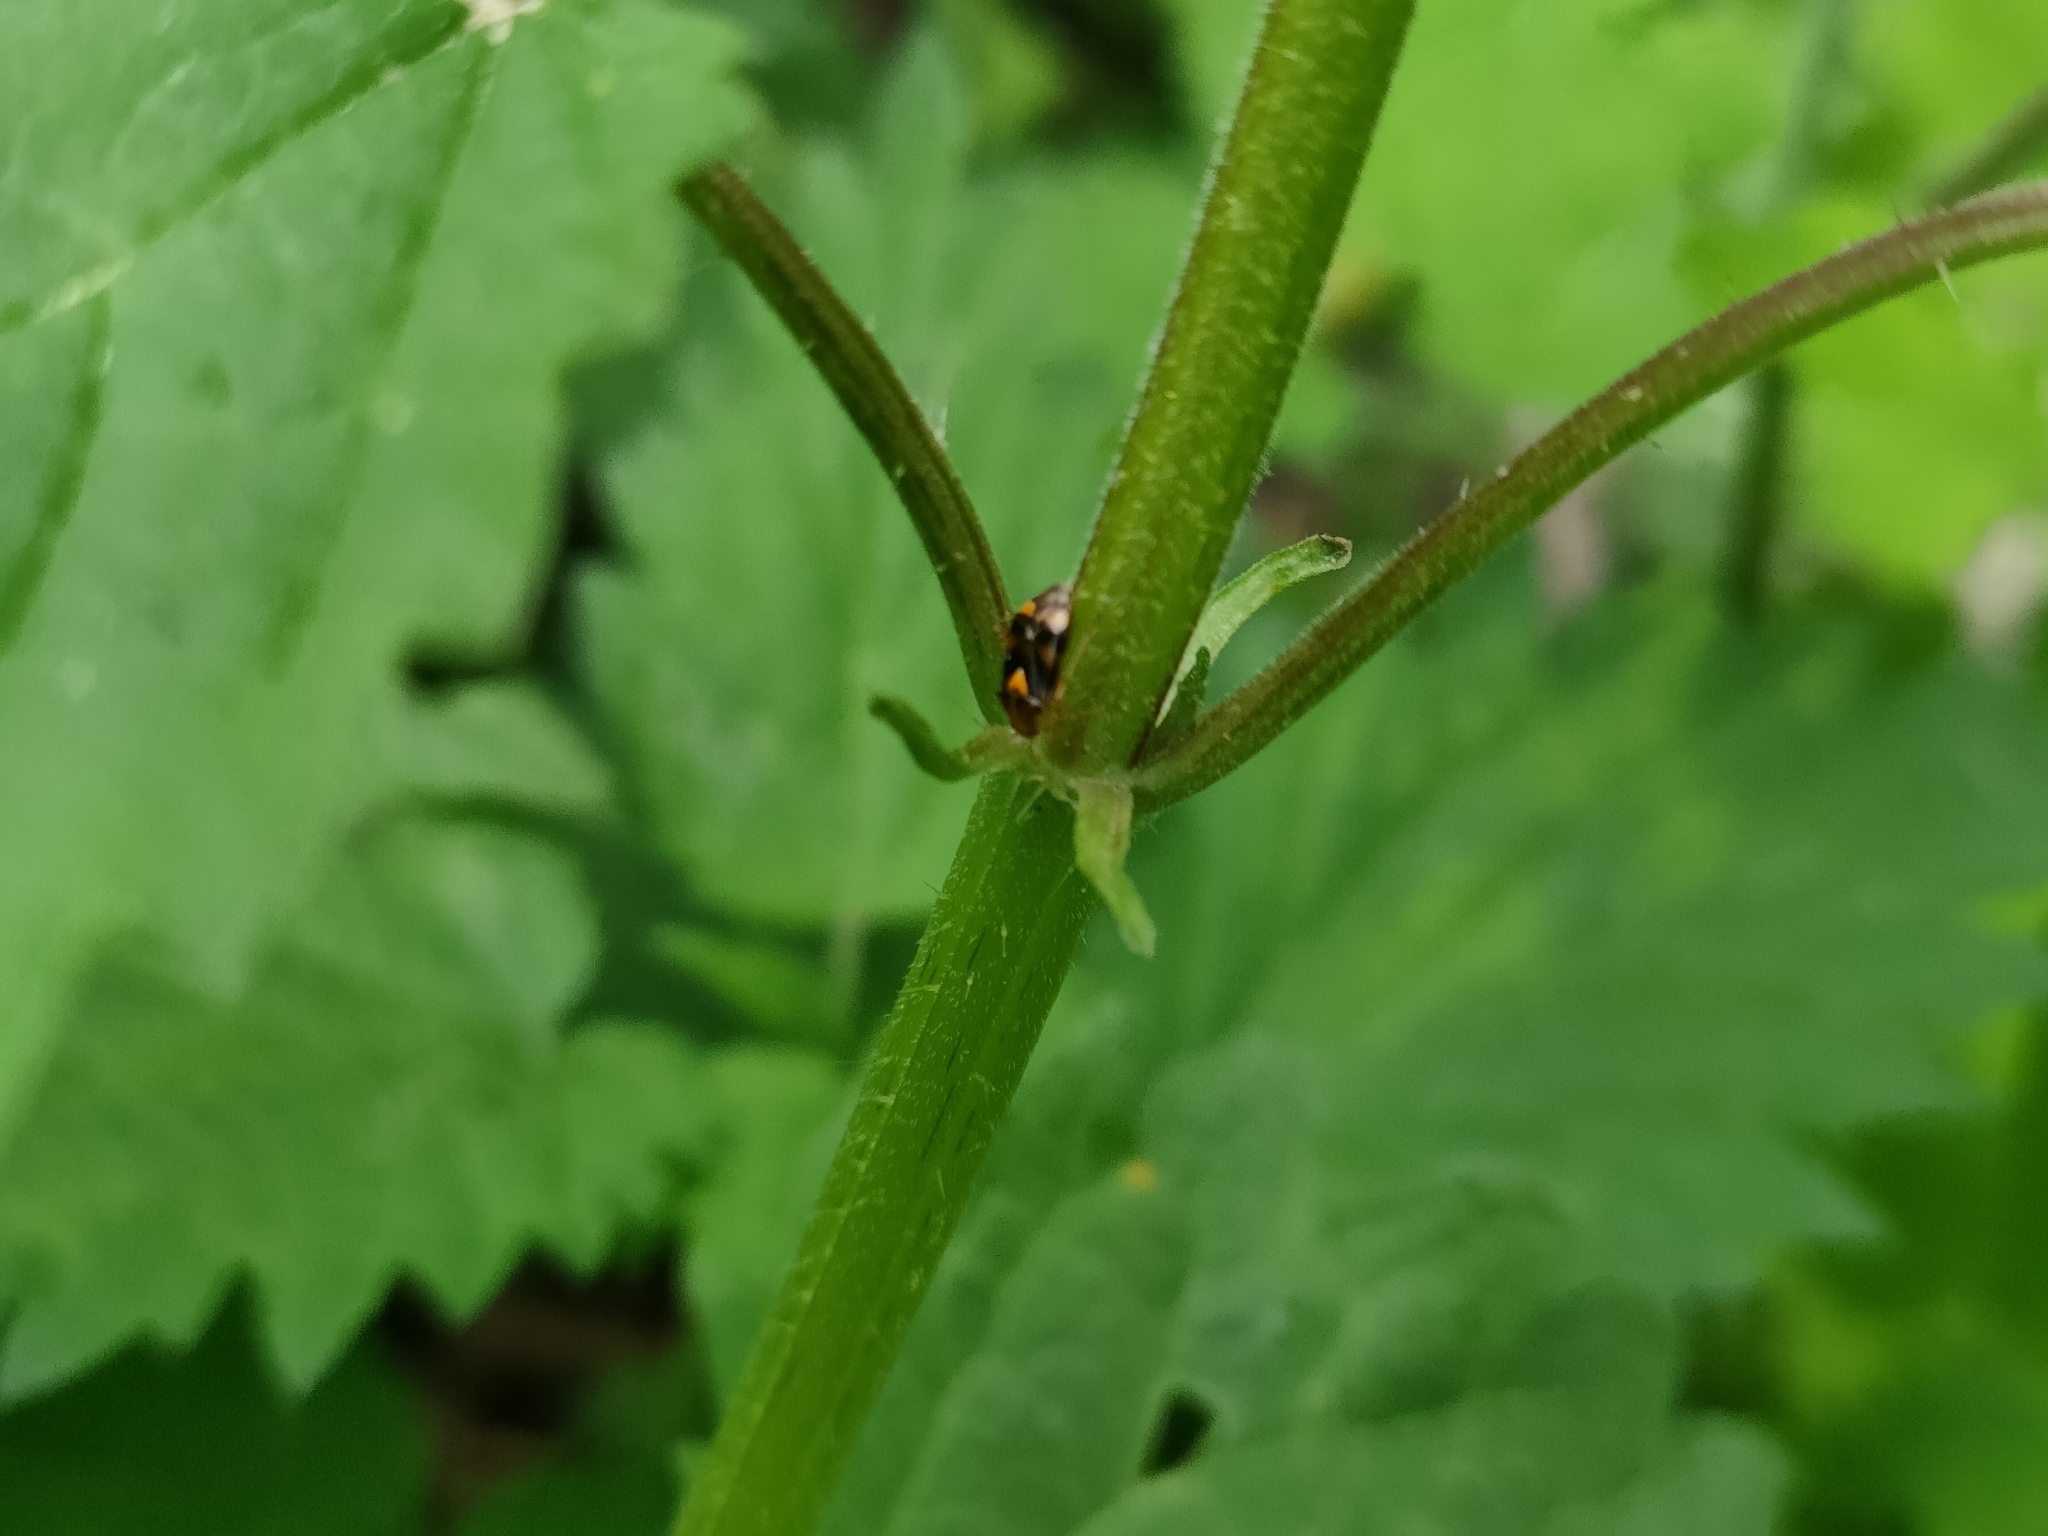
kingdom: Animalia
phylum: Arthropoda
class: Insecta
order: Hemiptera
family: Miridae
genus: Liocoris
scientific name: Liocoris tripustulatus
